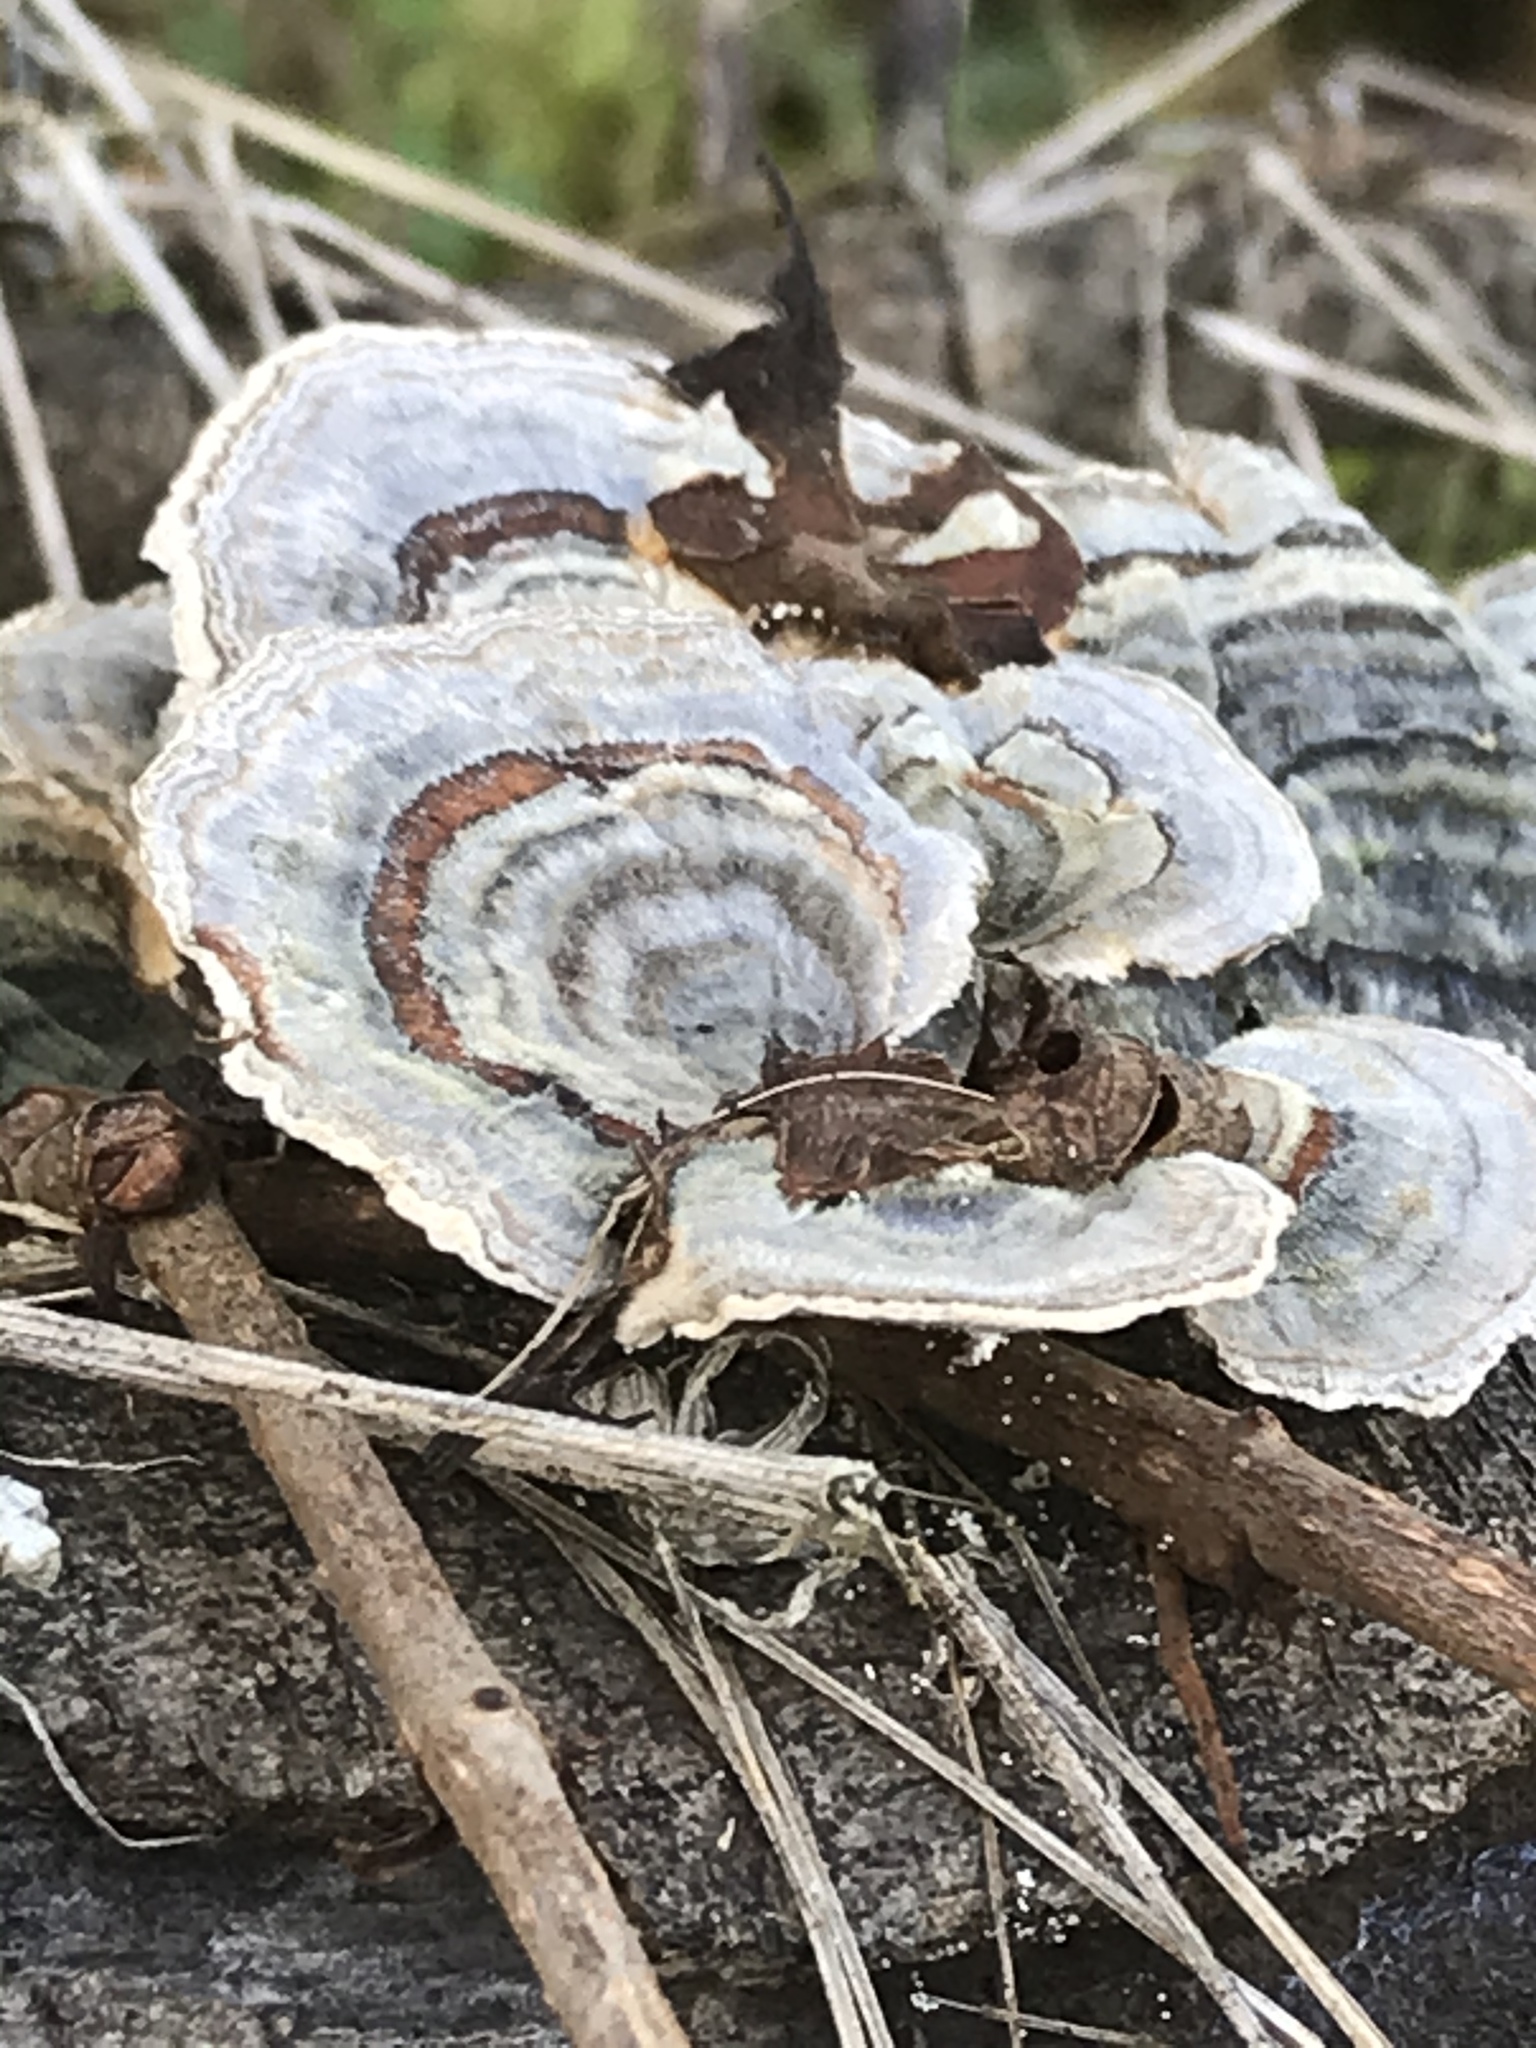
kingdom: Fungi
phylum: Basidiomycota
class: Agaricomycetes
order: Polyporales
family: Polyporaceae
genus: Trametes
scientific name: Trametes versicolor
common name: Turkeytail
